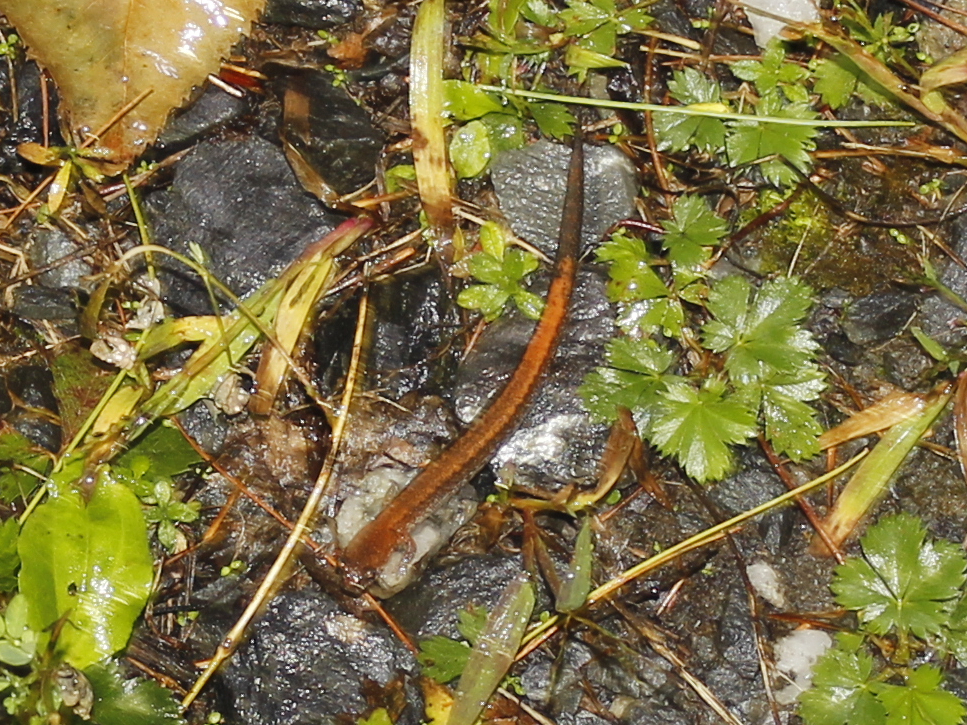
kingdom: Animalia
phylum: Chordata
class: Amphibia
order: Caudata
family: Plethodontidae
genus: Plethodon
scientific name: Plethodon cinereus
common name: Redback salamander
